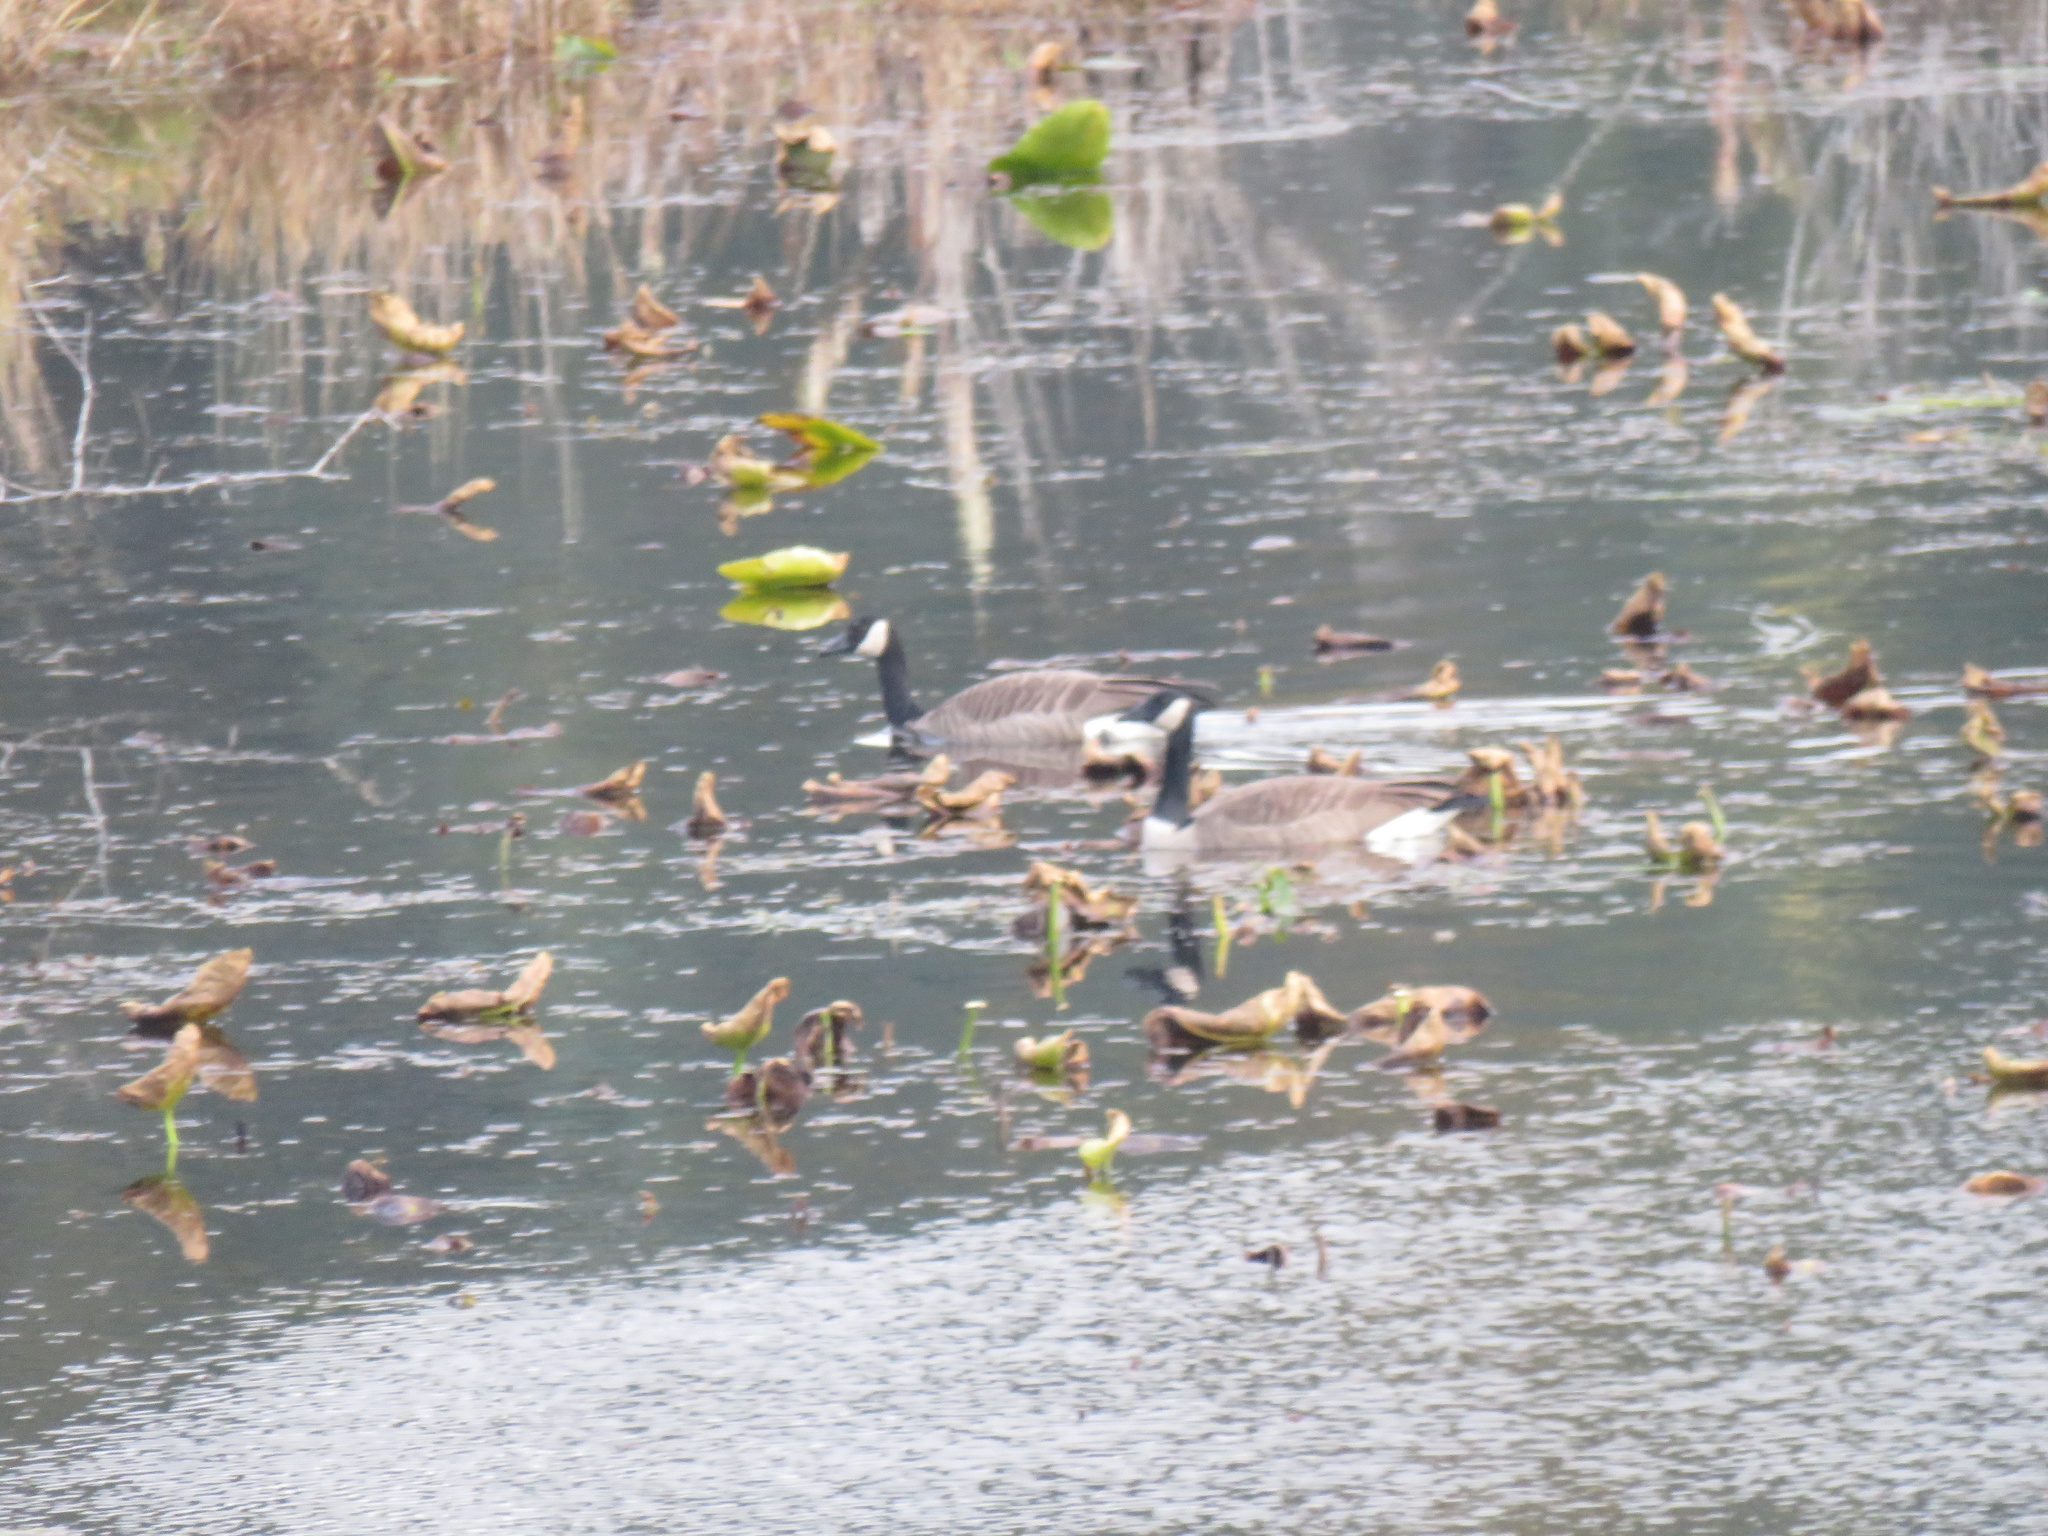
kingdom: Animalia
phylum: Chordata
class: Aves
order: Anseriformes
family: Anatidae
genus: Branta
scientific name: Branta canadensis
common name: Canada goose
